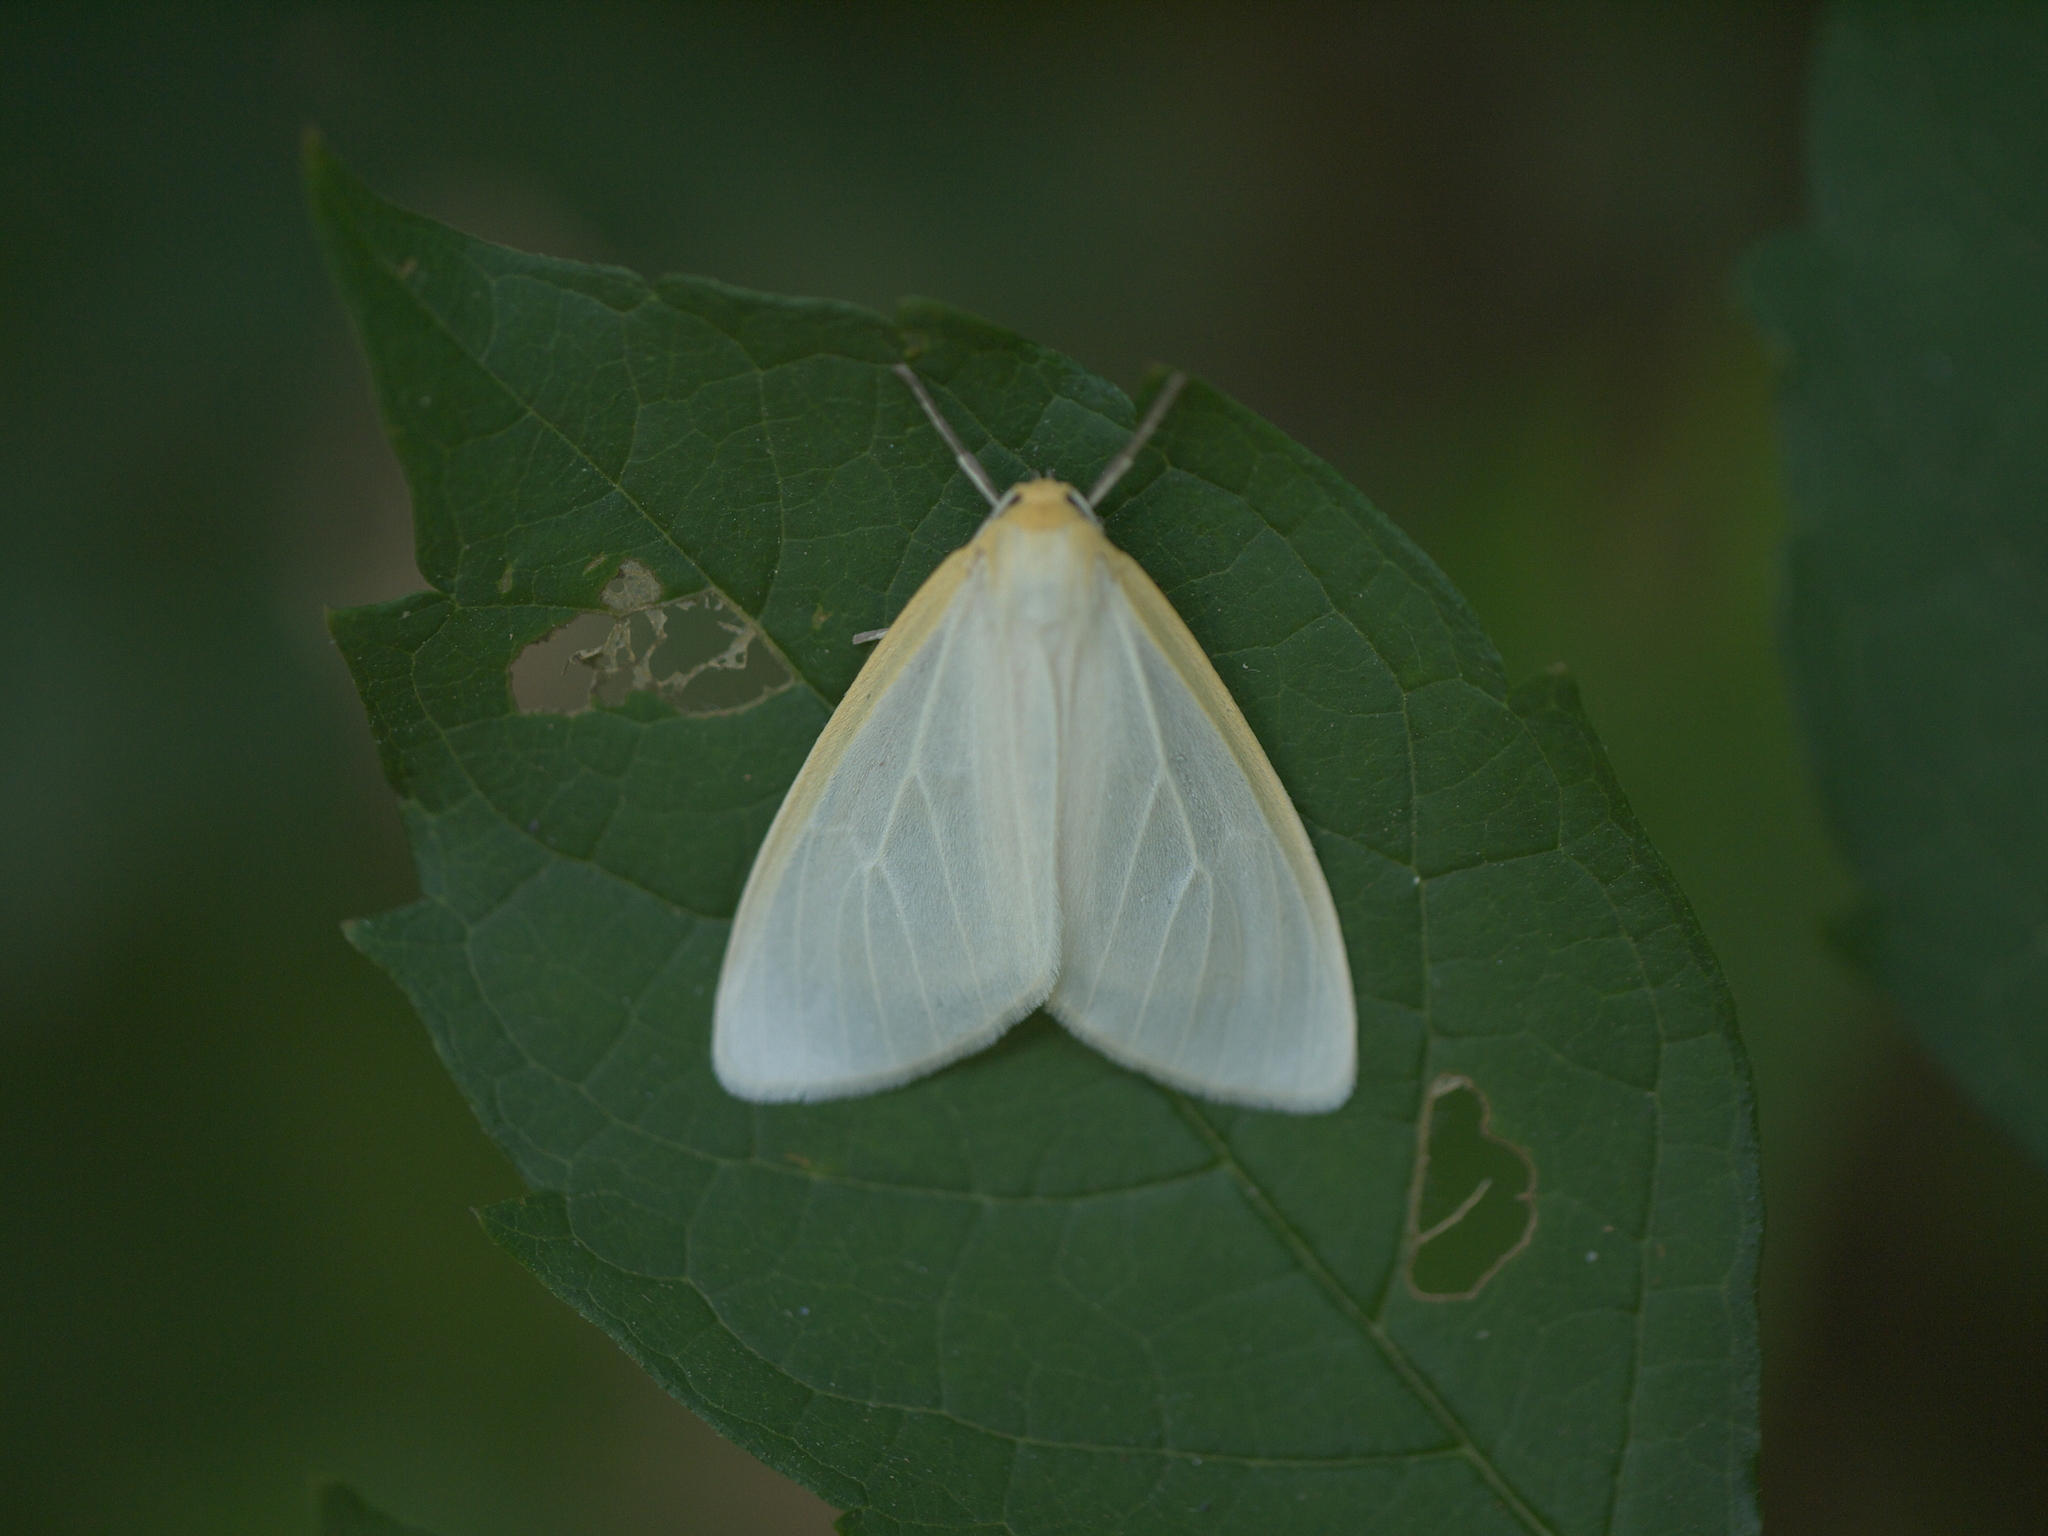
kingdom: Animalia
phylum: Arthropoda
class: Insecta
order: Lepidoptera
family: Erebidae
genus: Cycnia
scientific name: Cycnia tenera
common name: Delicate cycnia moth
